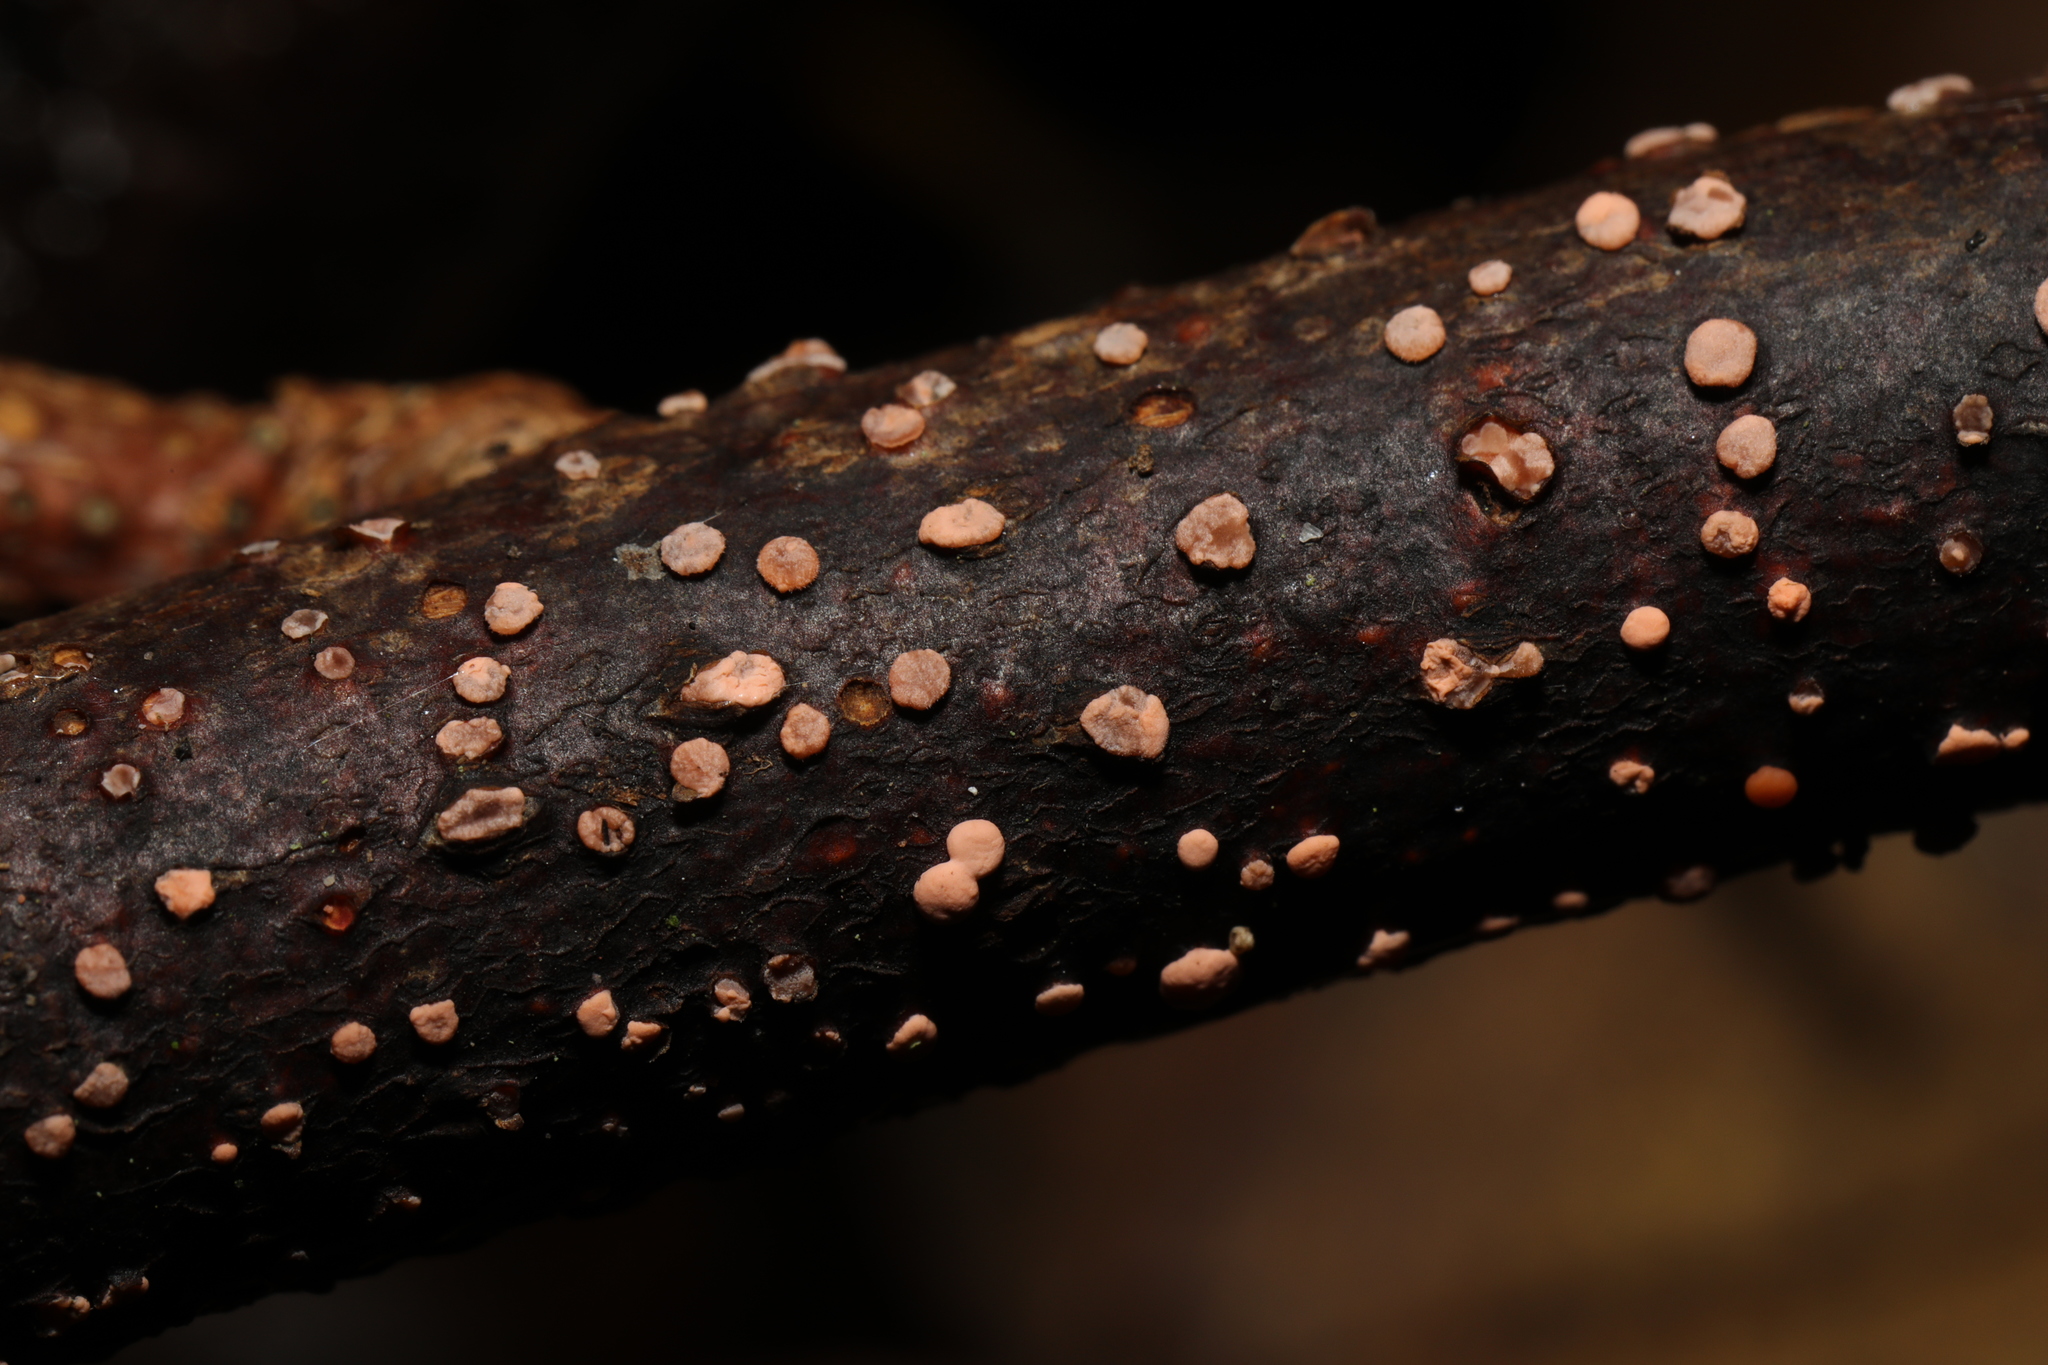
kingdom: Fungi
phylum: Ascomycota
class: Sordariomycetes
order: Hypocreales
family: Nectriaceae
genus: Nectria
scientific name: Nectria cinnabarina
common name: Coral spot
